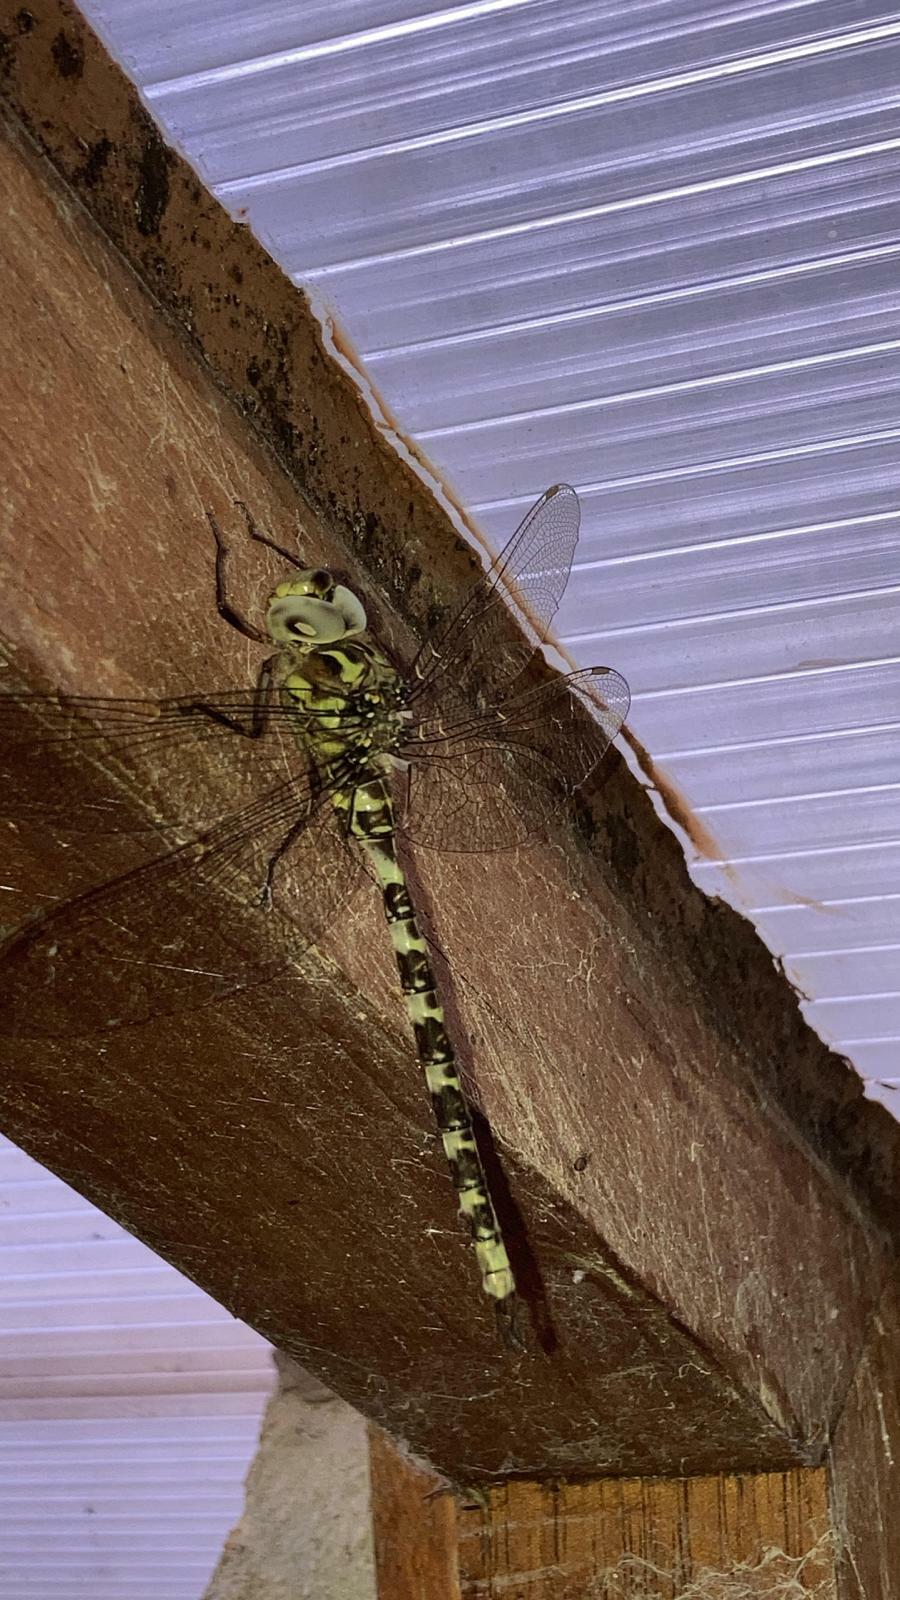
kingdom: Animalia
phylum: Arthropoda
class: Insecta
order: Odonata
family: Aeshnidae
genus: Boyeria
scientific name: Boyeria irene
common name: Western spectre
